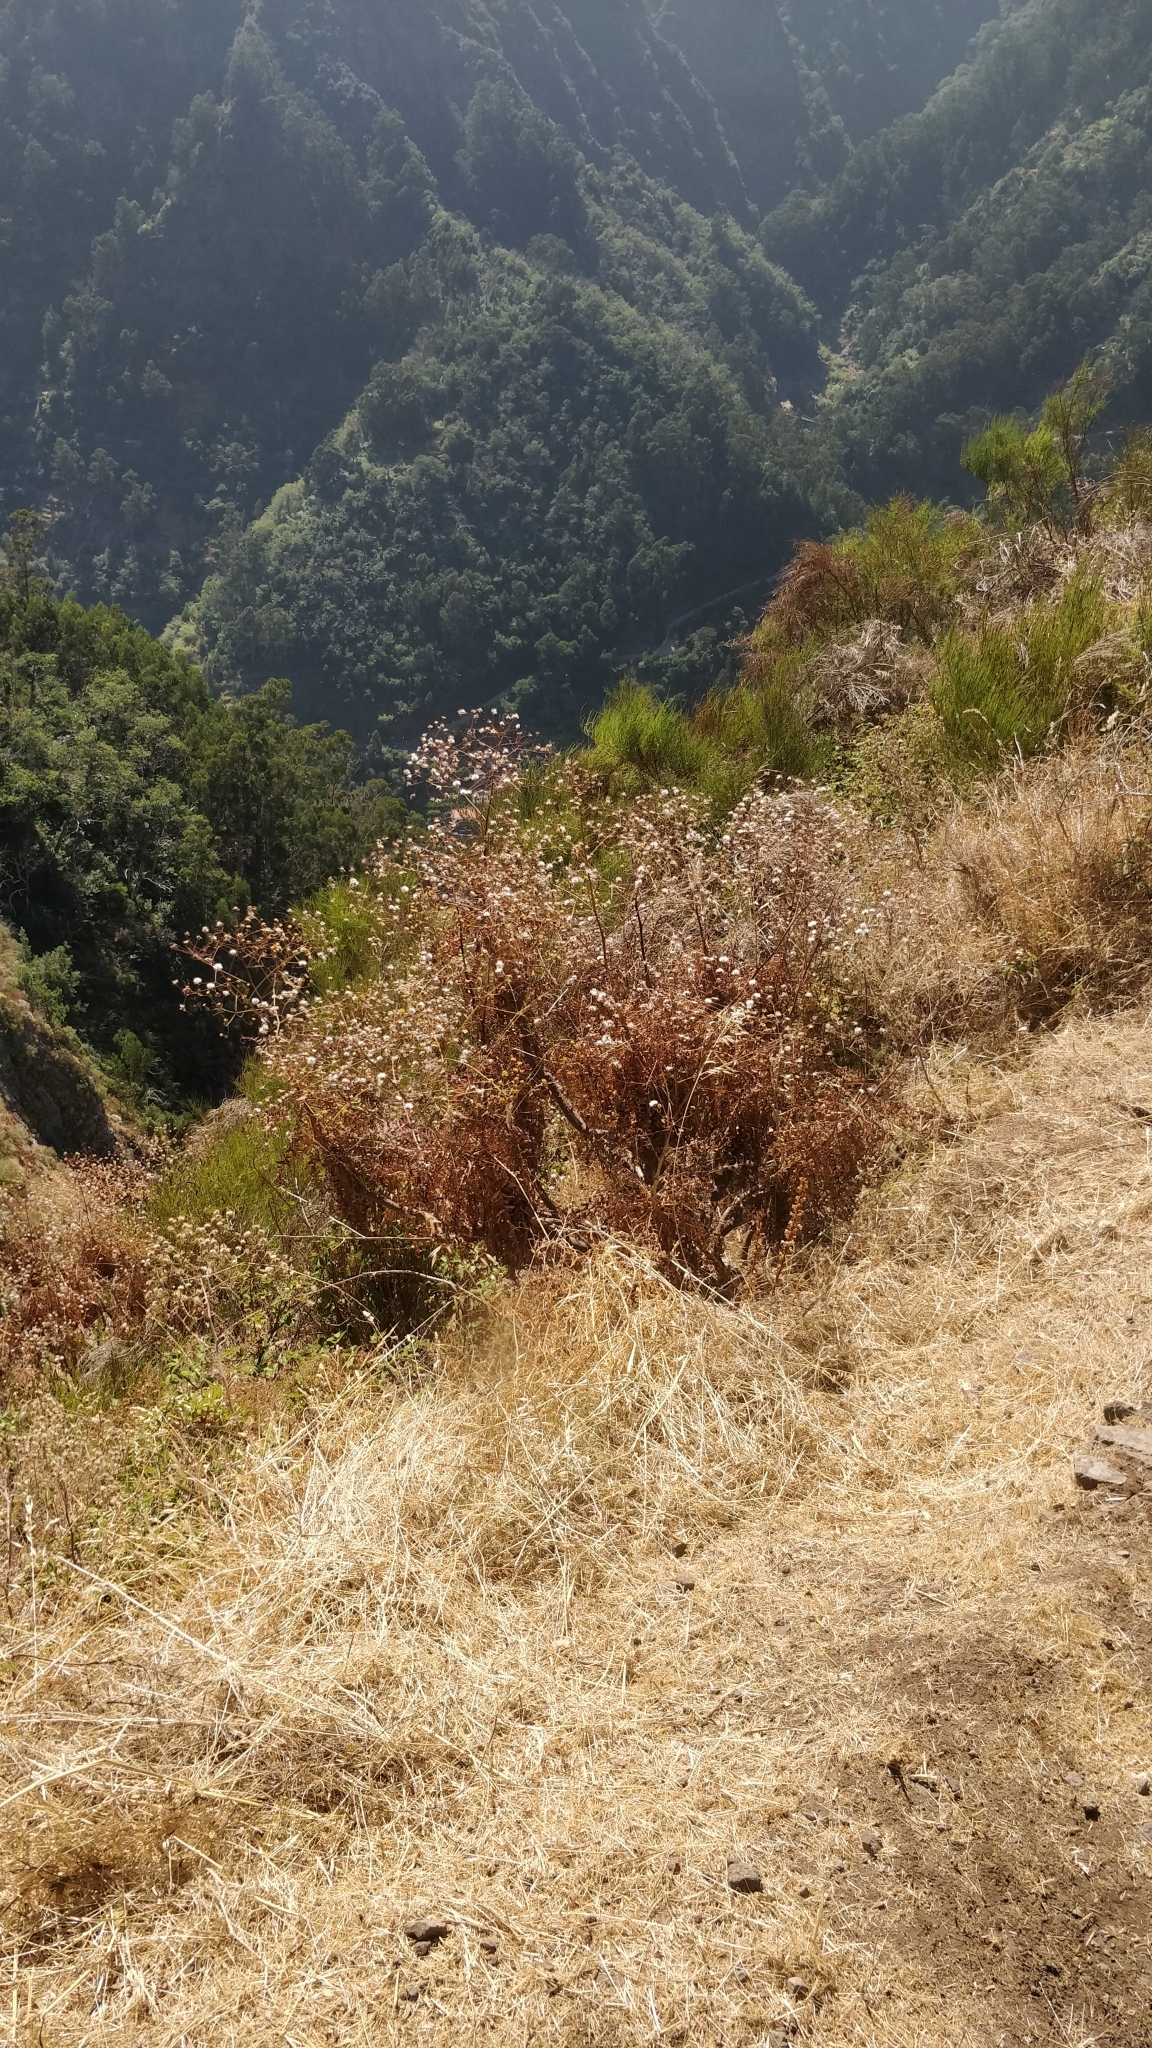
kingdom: Plantae
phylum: Tracheophyta
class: Magnoliopsida
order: Asterales
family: Asteraceae
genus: Sonchus
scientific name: Sonchus pinnatus
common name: Wing-leaved sow-thistle
